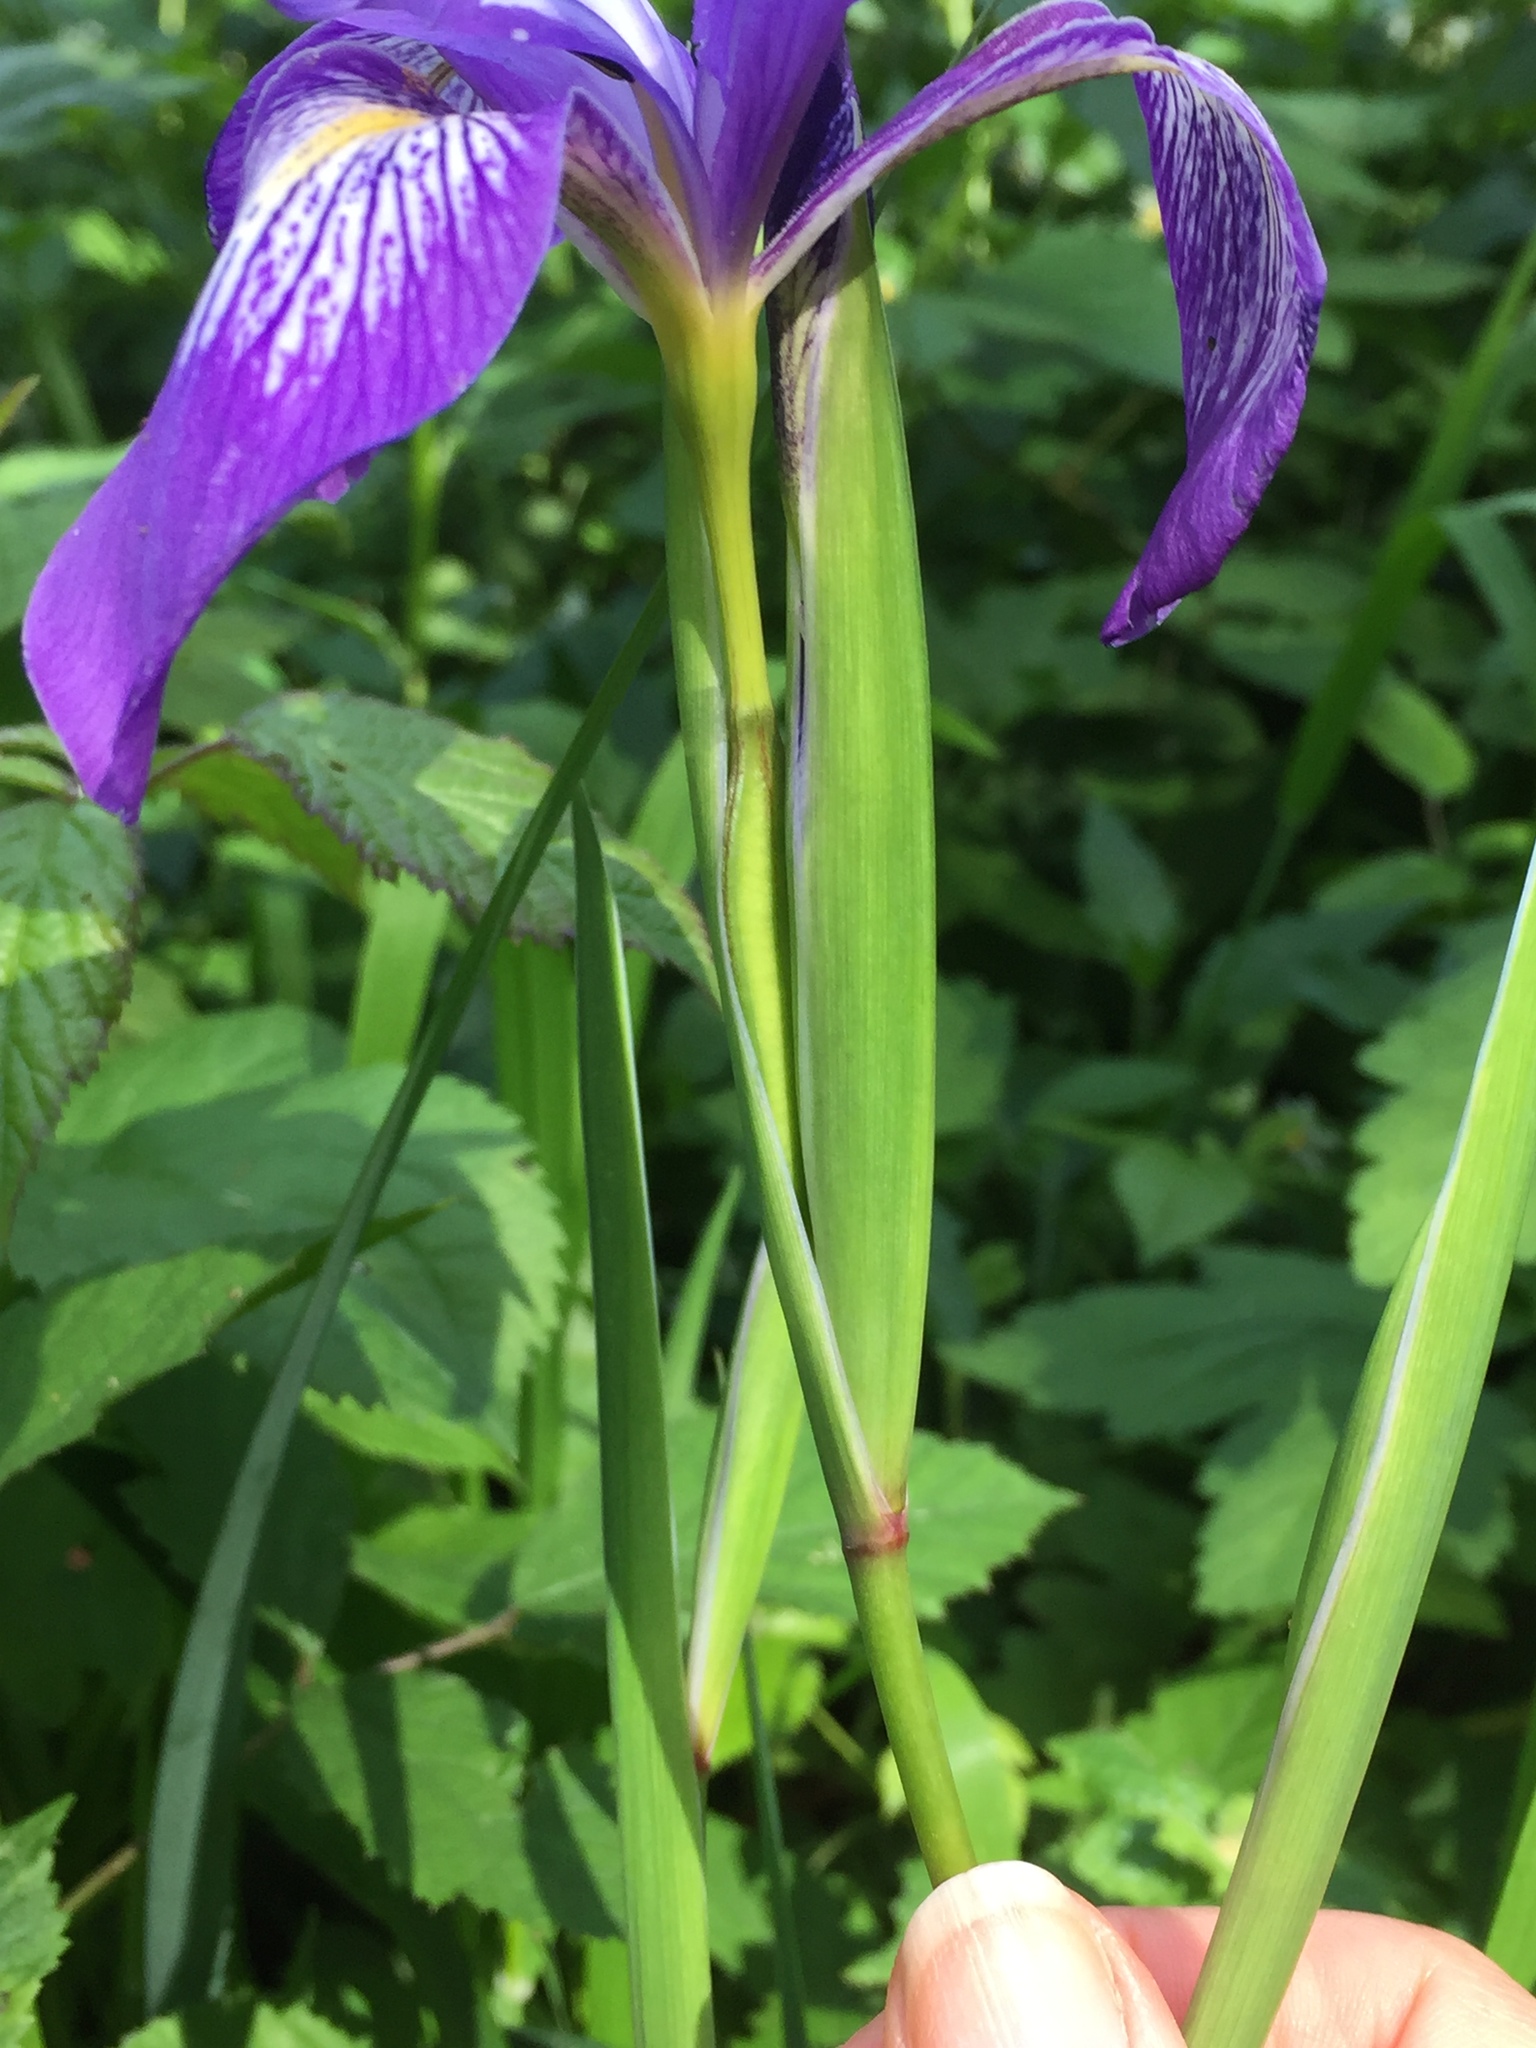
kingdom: Plantae
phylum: Tracheophyta
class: Liliopsida
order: Asparagales
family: Iridaceae
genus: Iris
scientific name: Iris douglasiana
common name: Marin iris
